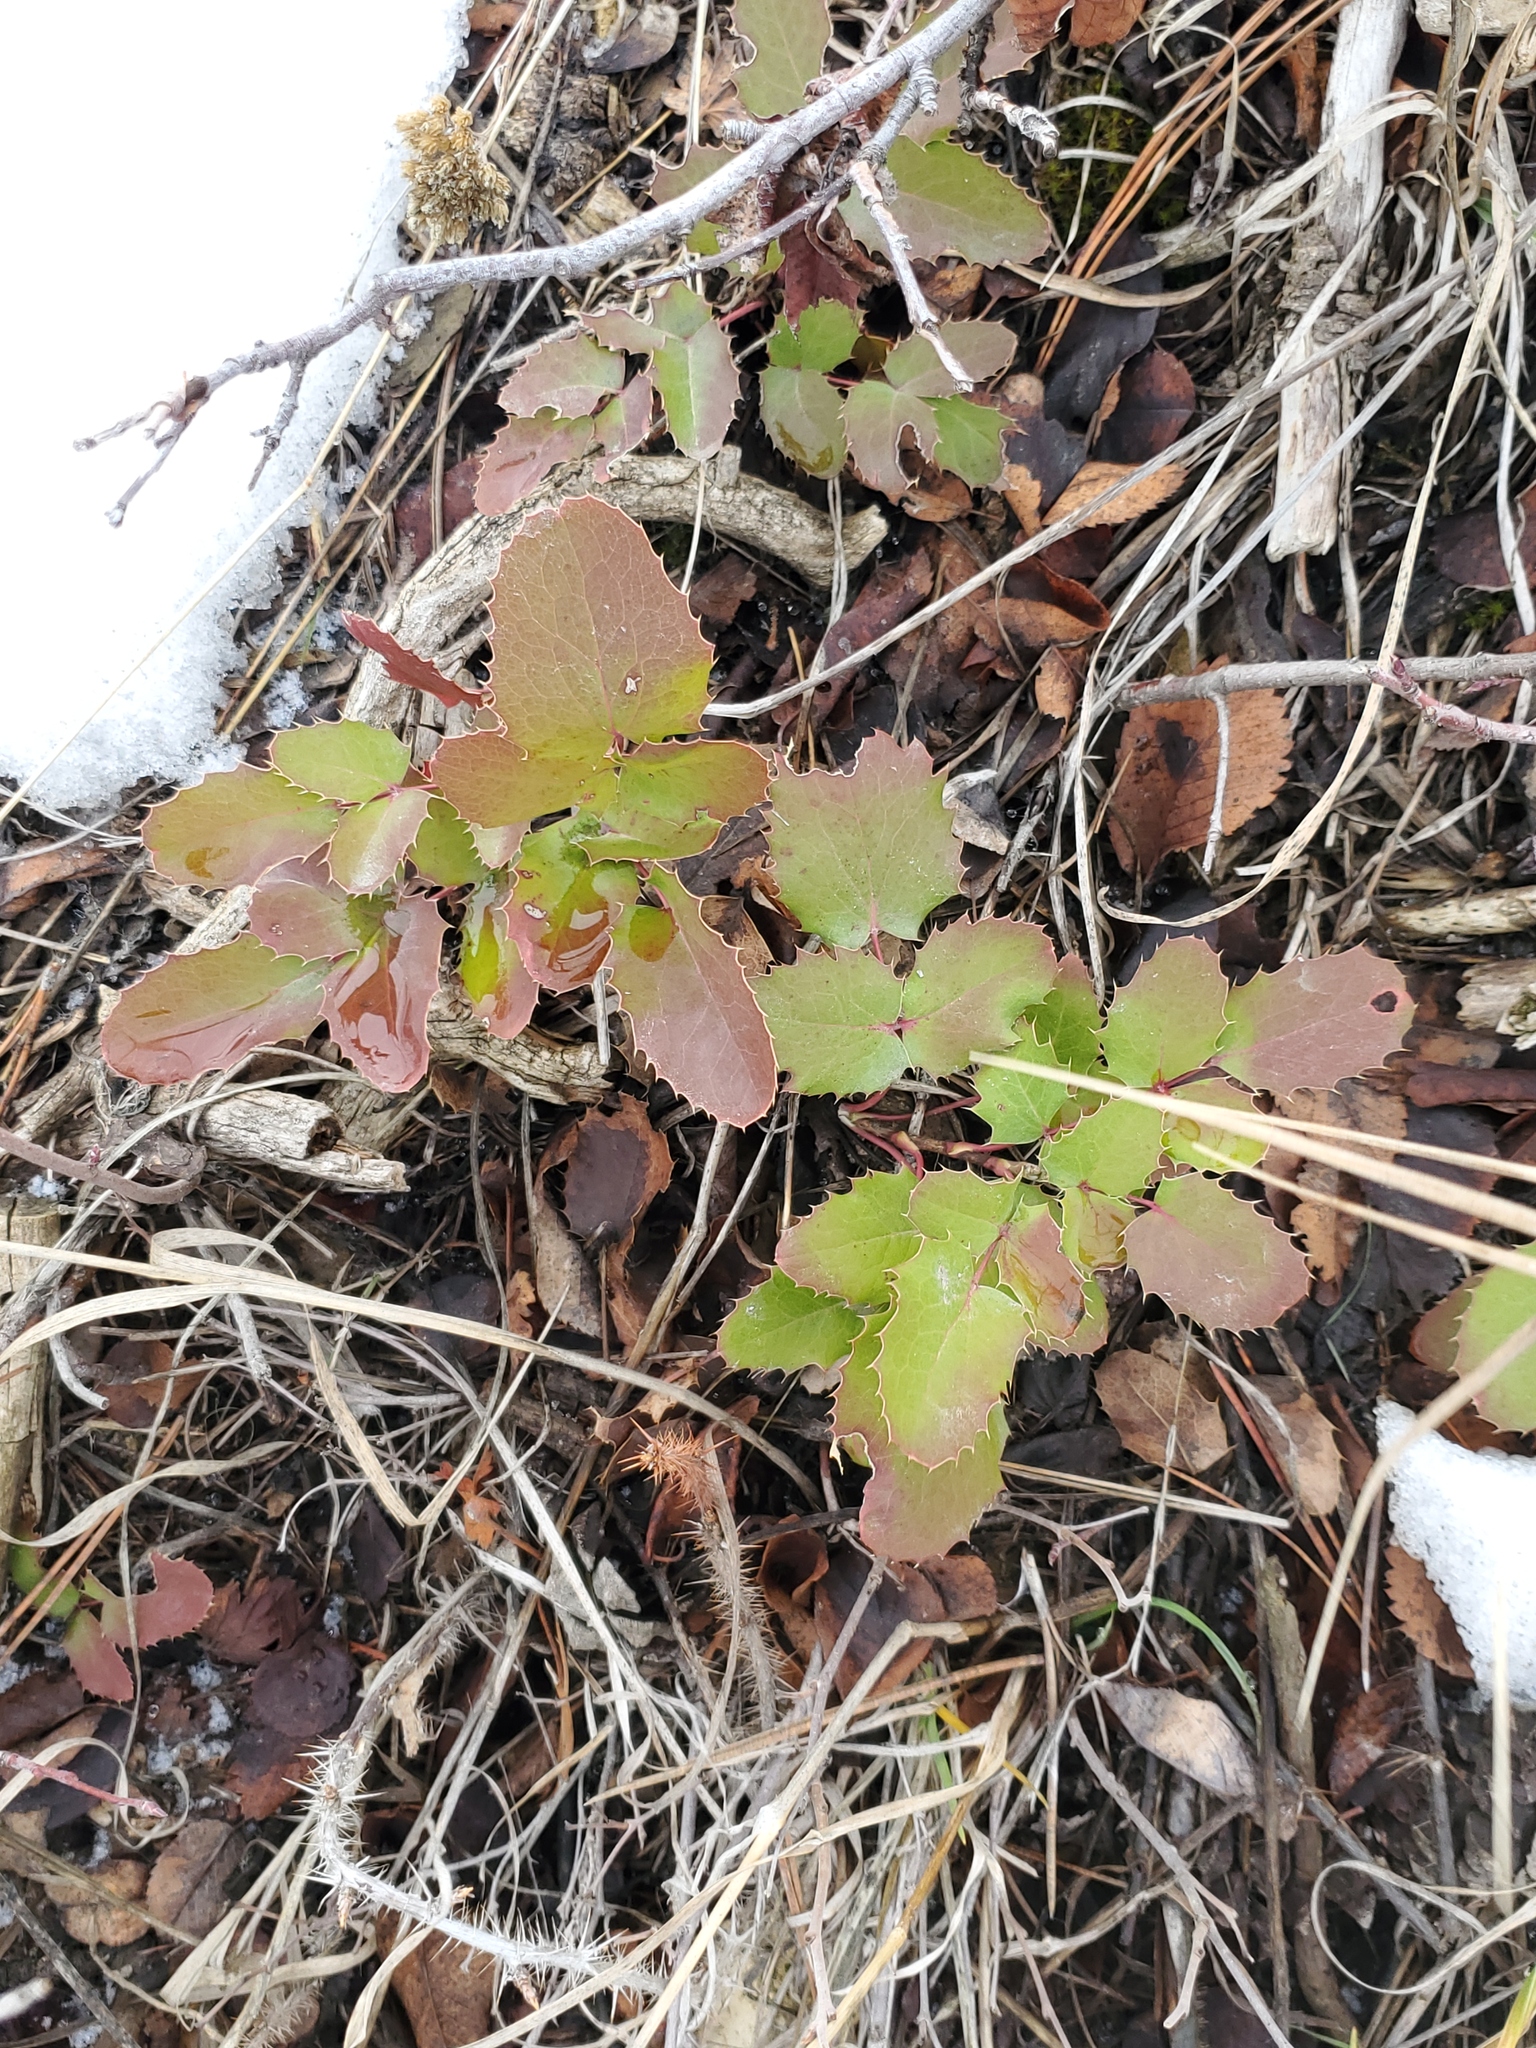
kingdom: Plantae
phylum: Tracheophyta
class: Magnoliopsida
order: Ranunculales
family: Berberidaceae
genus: Mahonia
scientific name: Mahonia repens
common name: Creeping oregon-grape
